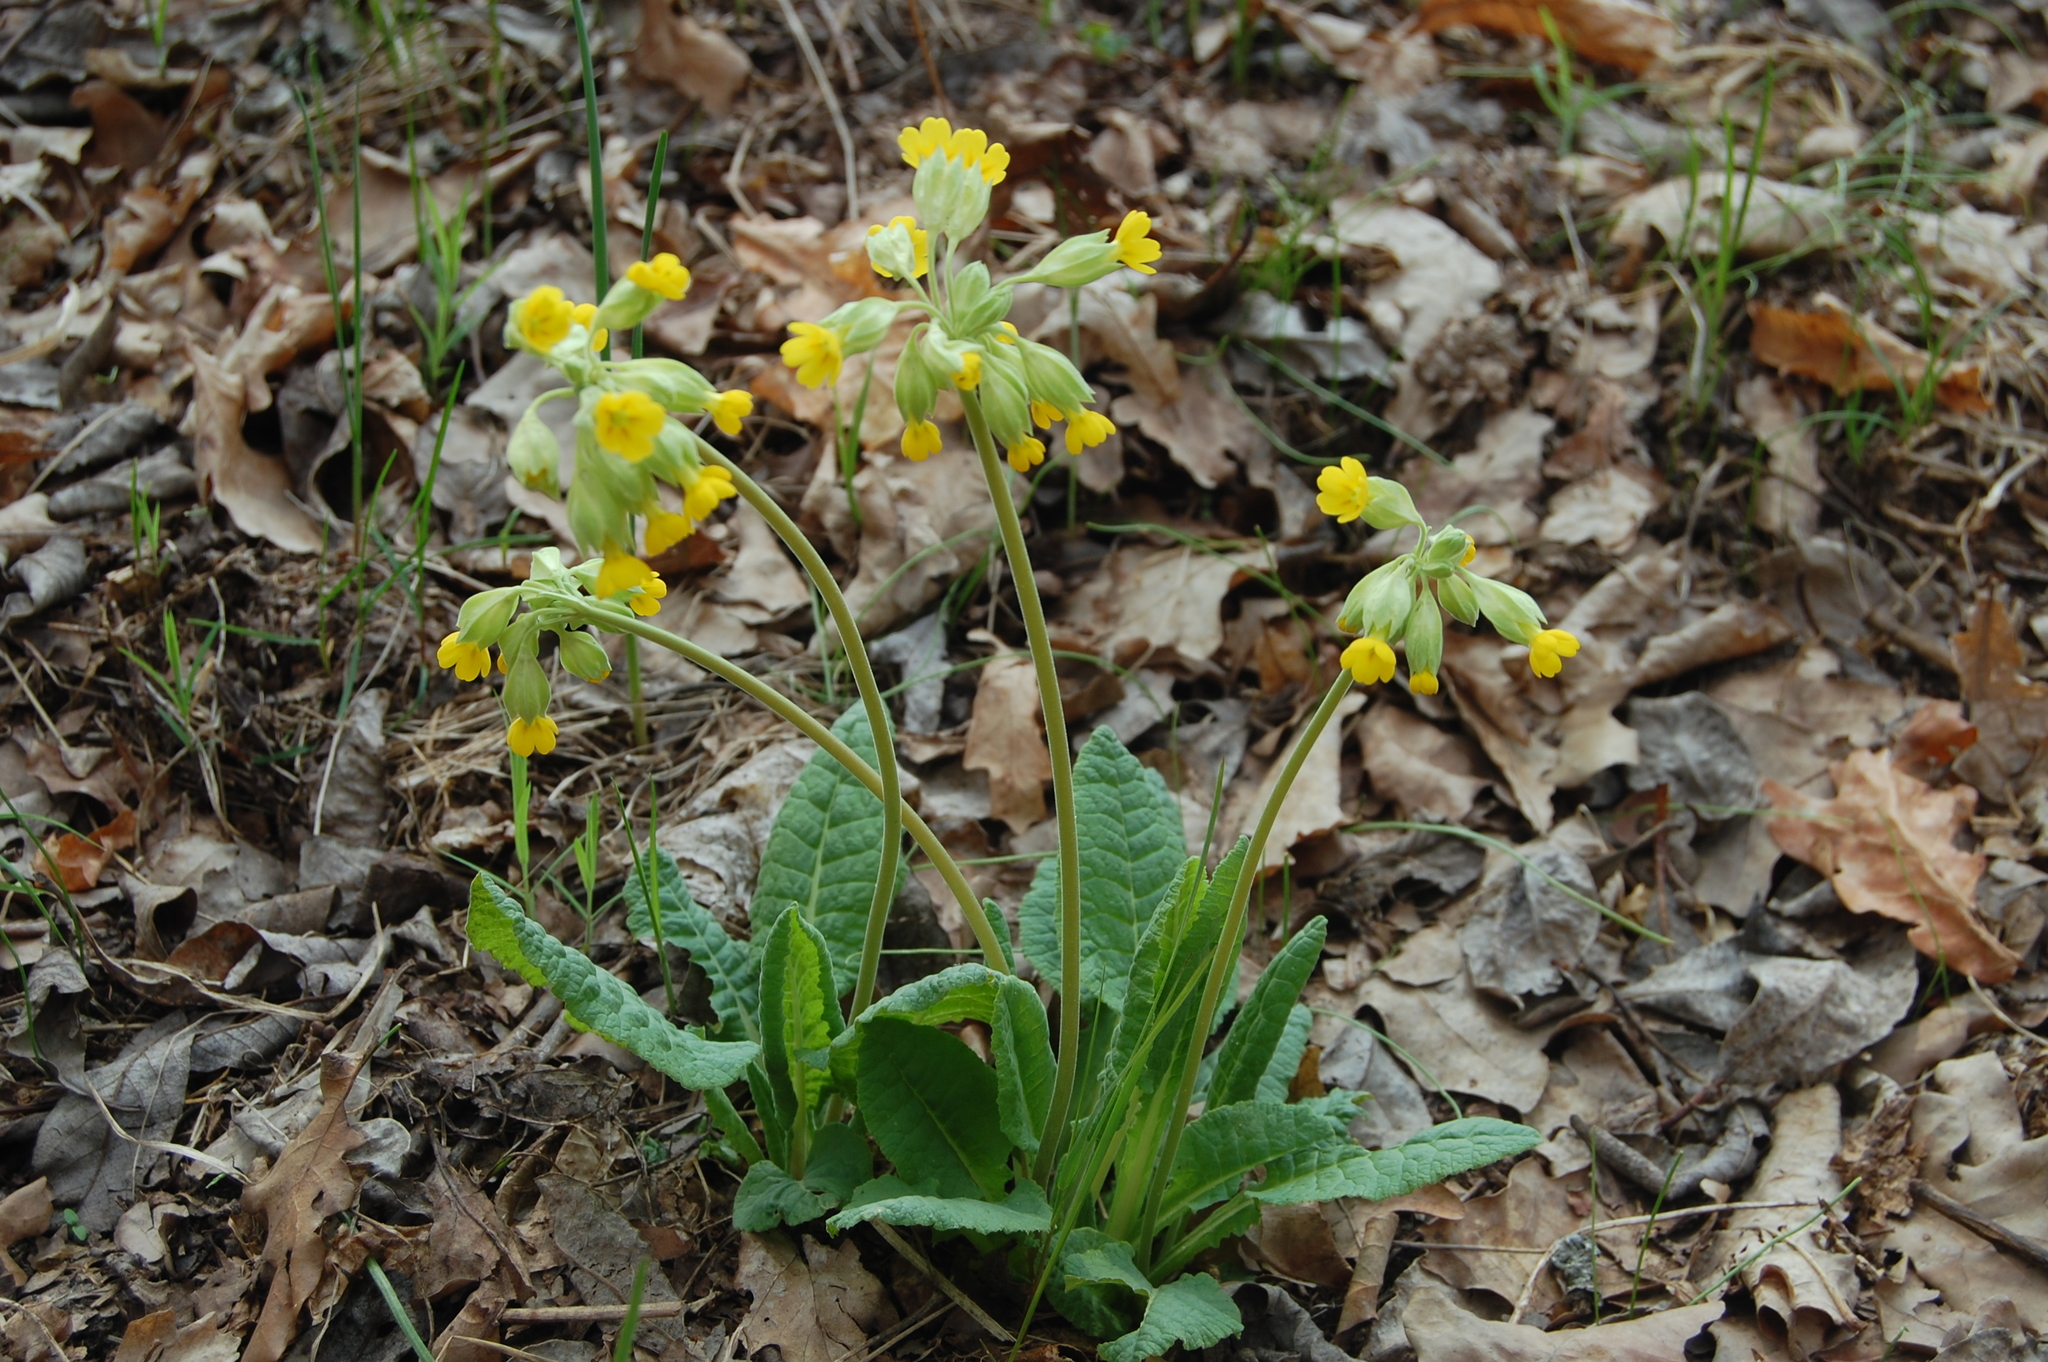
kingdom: Plantae
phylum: Tracheophyta
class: Magnoliopsida
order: Ericales
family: Primulaceae
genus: Primula
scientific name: Primula veris
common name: Cowslip
